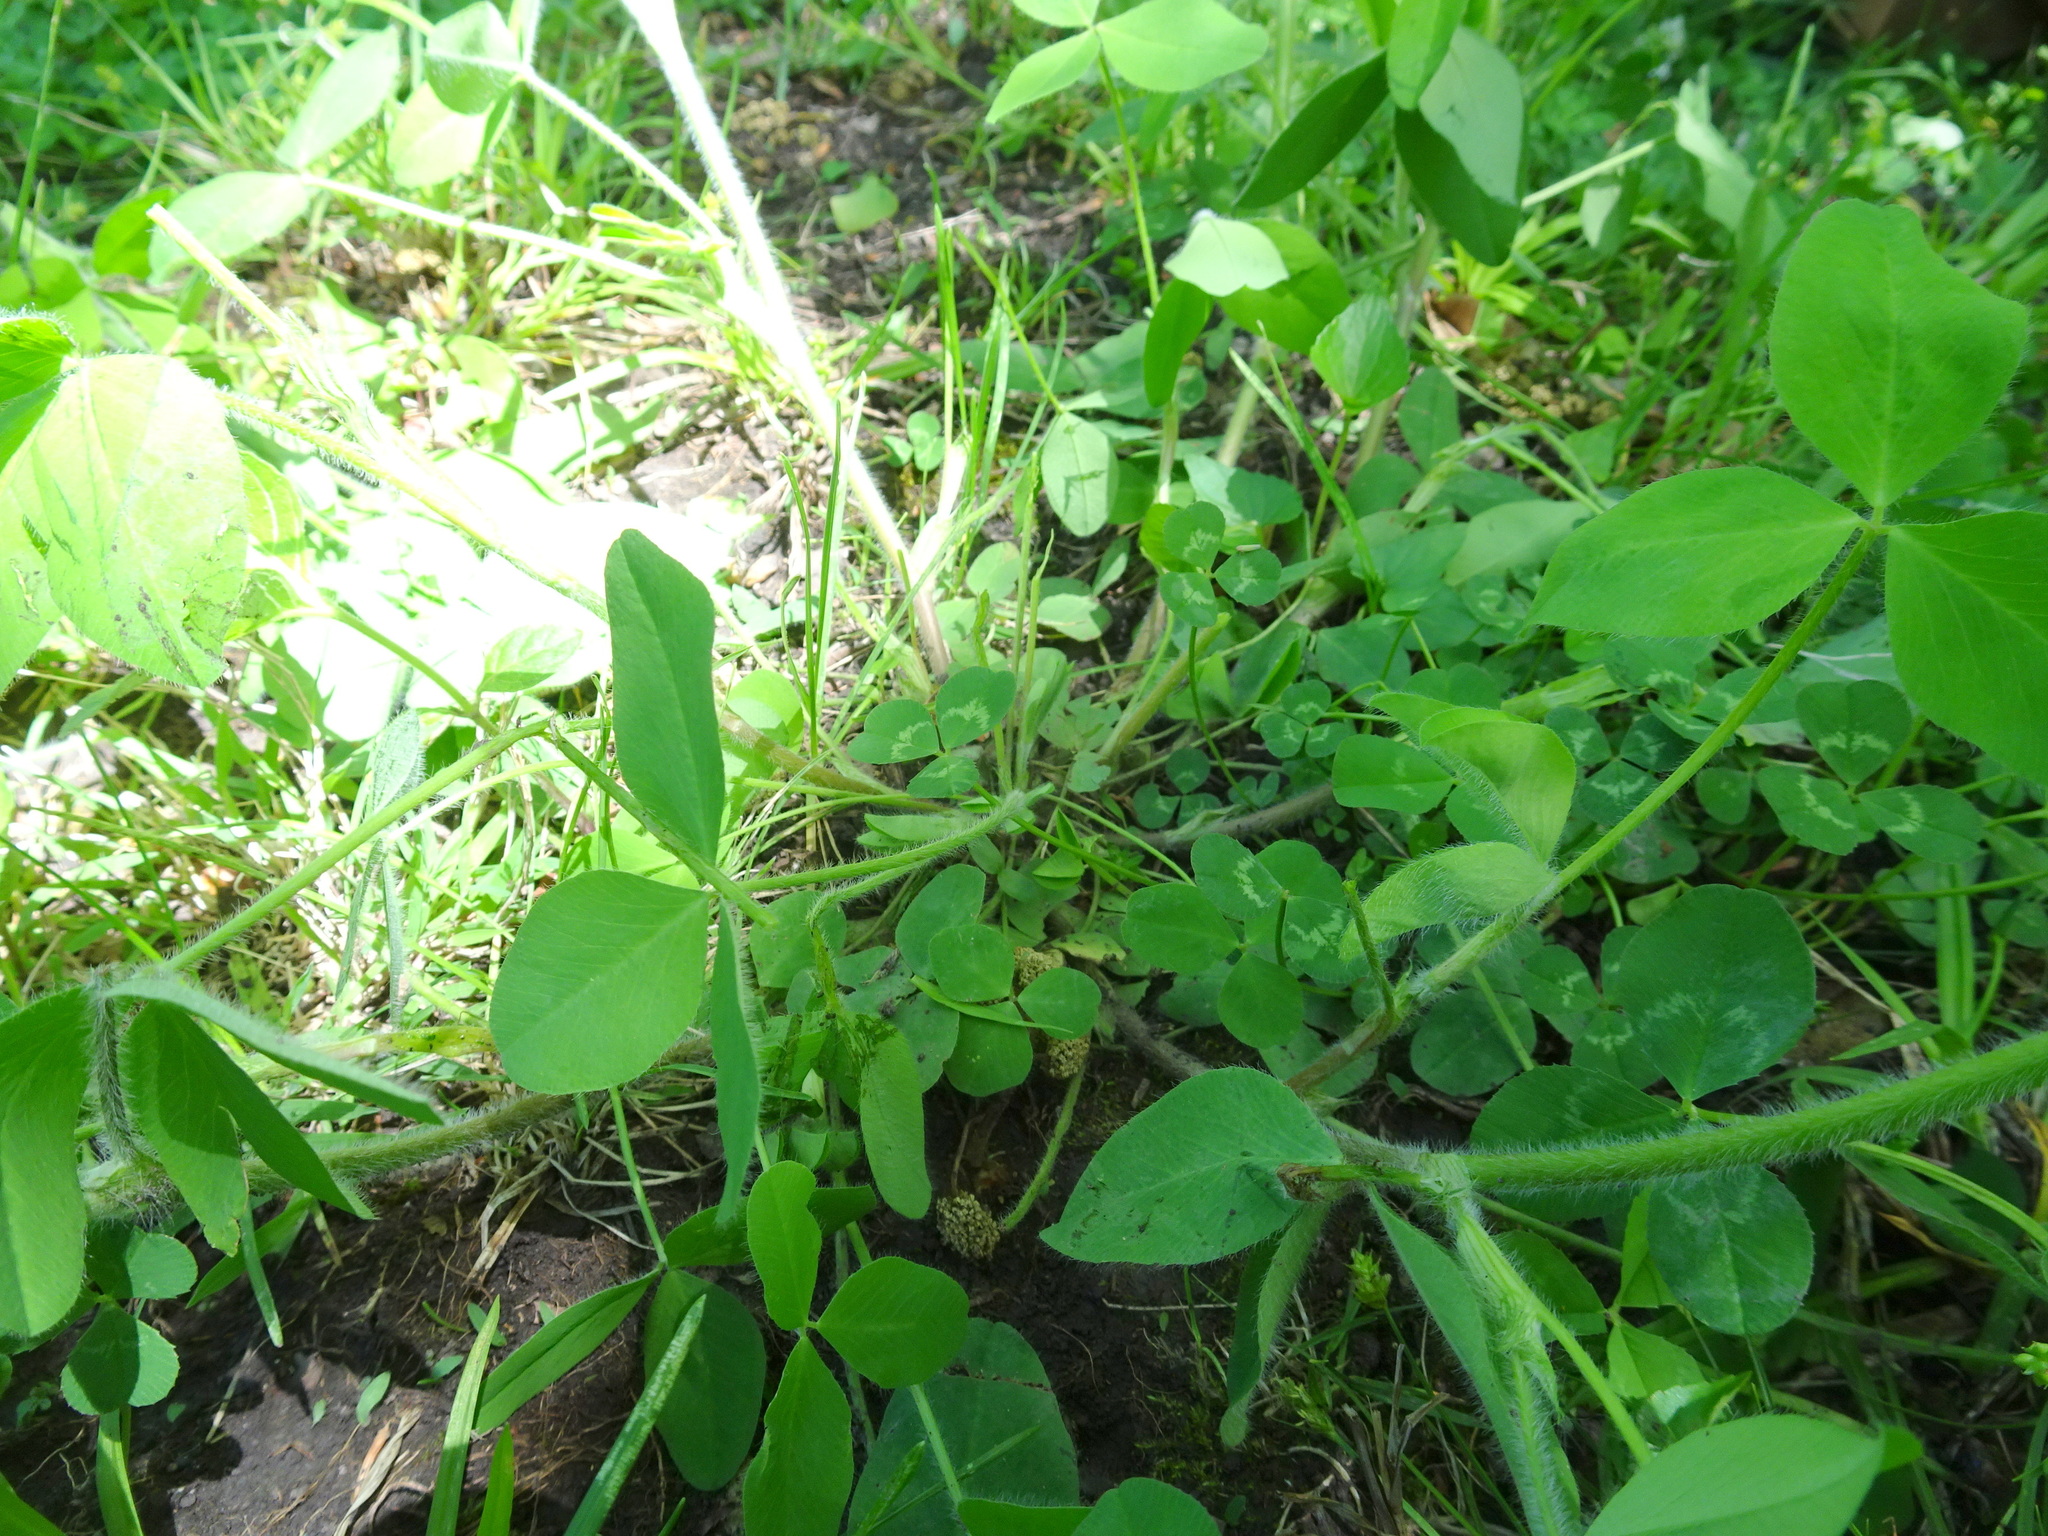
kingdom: Plantae
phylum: Tracheophyta
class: Magnoliopsida
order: Fabales
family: Fabaceae
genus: Trifolium
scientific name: Trifolium pratense
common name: Red clover
